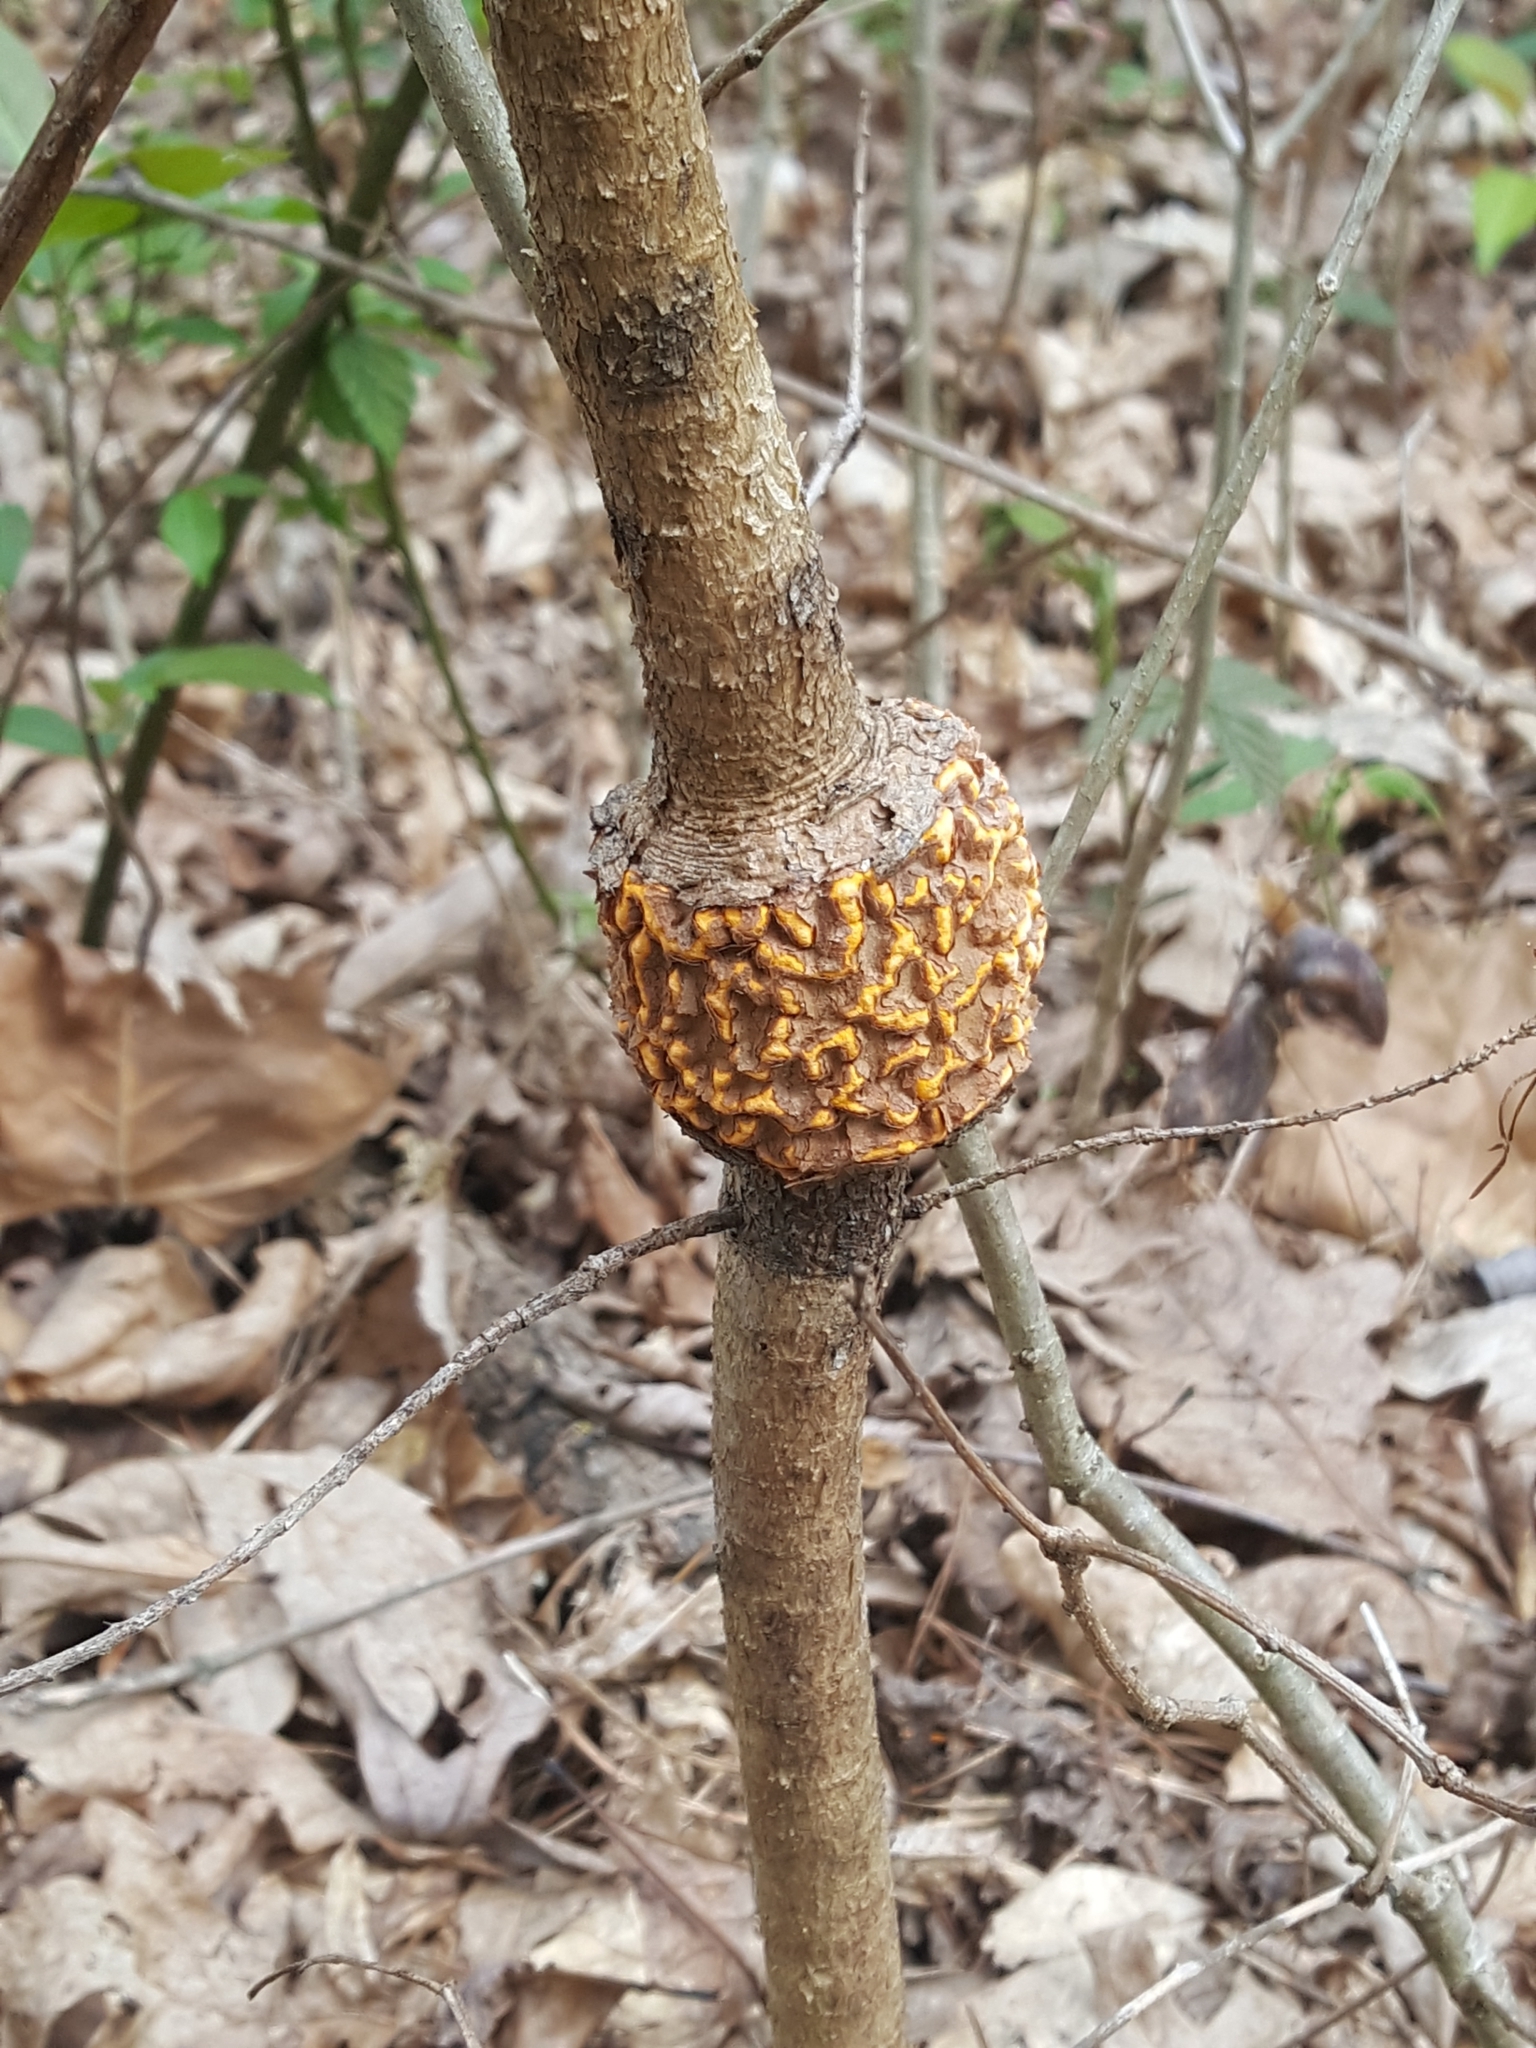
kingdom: Fungi
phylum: Basidiomycota
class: Pucciniomycetes
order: Pucciniales
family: Cronartiaceae
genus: Cronartium
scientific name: Cronartium quercuum
